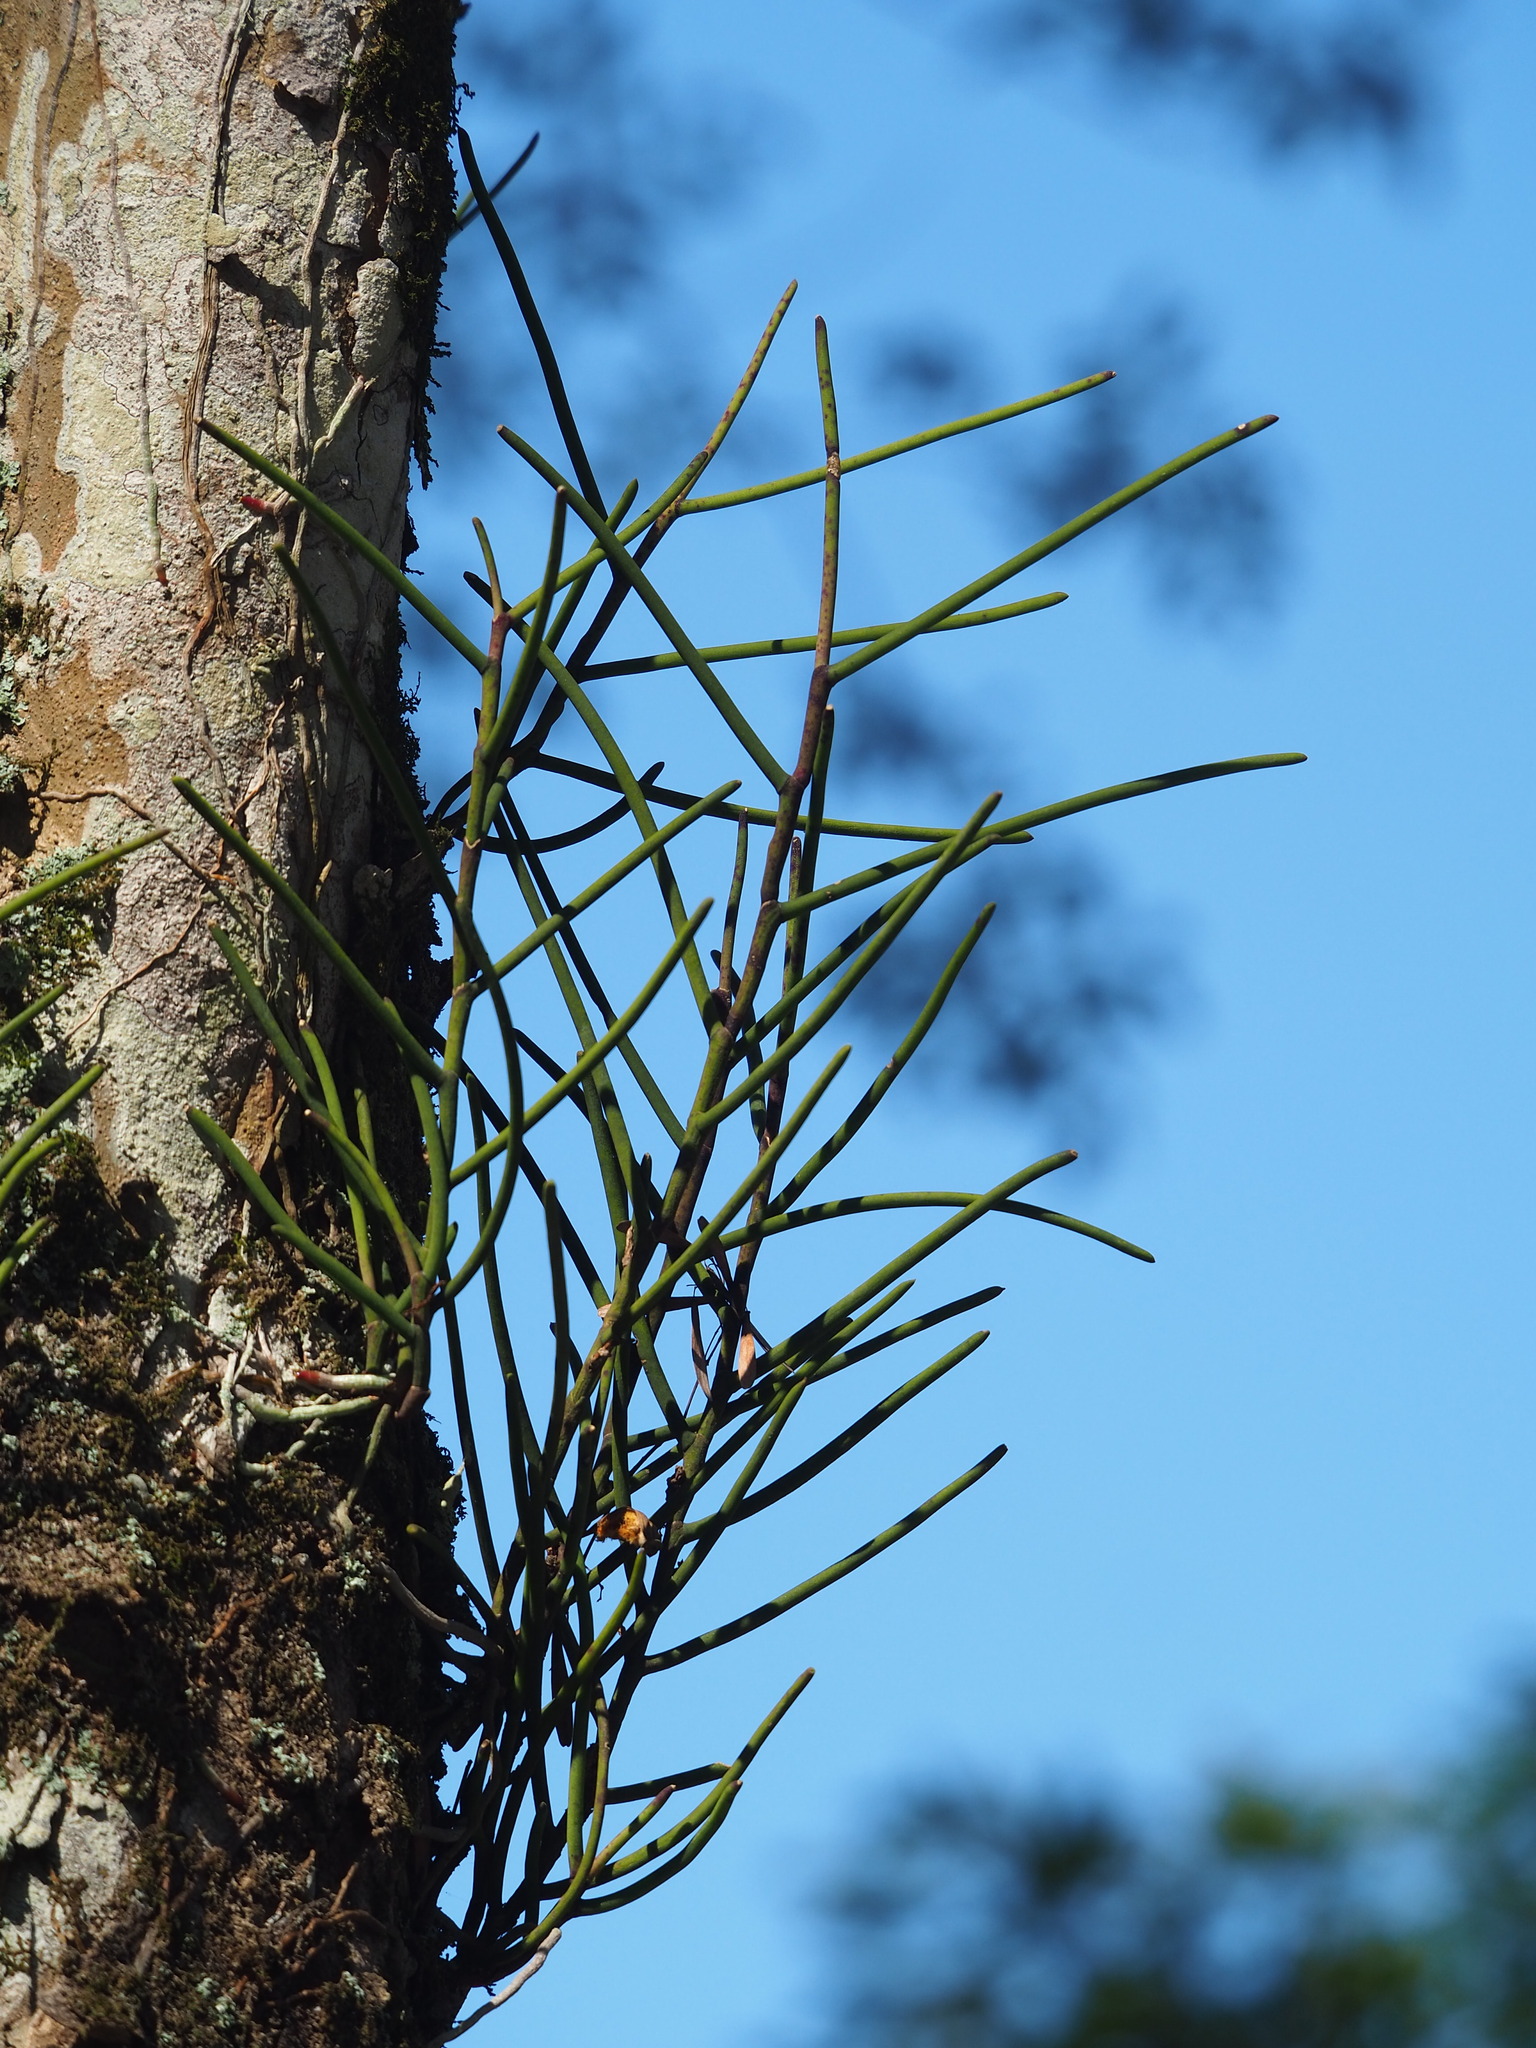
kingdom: Plantae
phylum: Tracheophyta
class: Liliopsida
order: Asparagales
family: Orchidaceae
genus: Luisia
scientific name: Luisia teres
